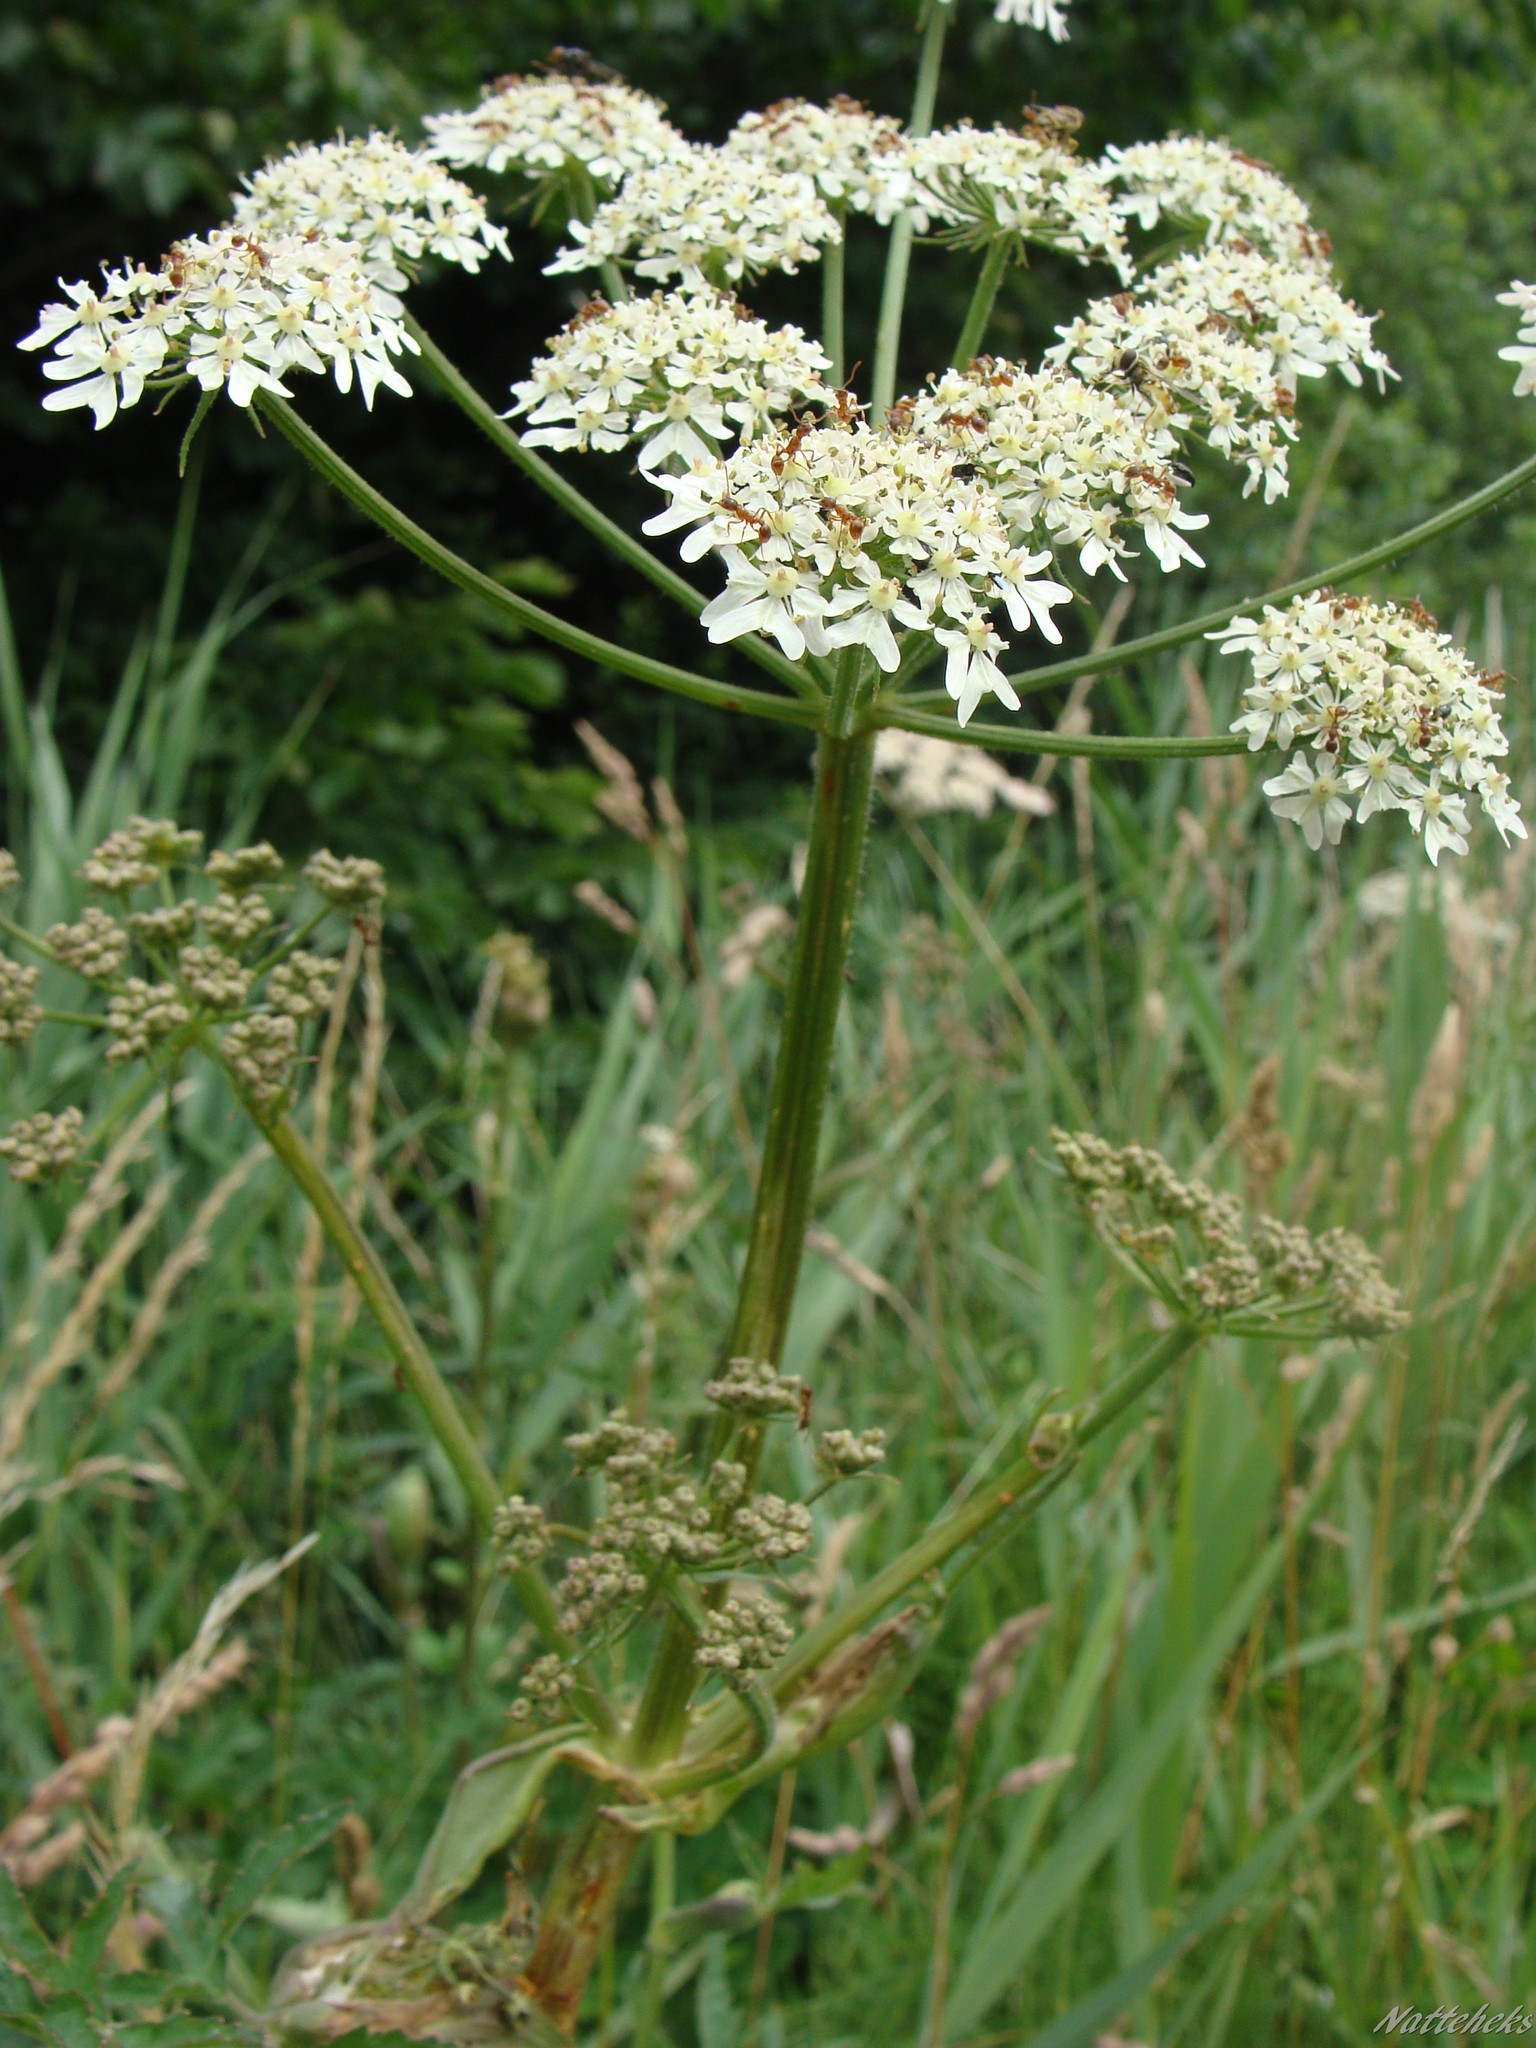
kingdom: Plantae
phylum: Tracheophyta
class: Magnoliopsida
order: Apiales
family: Apiaceae
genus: Heracleum
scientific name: Heracleum sphondylium
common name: Hogweed
